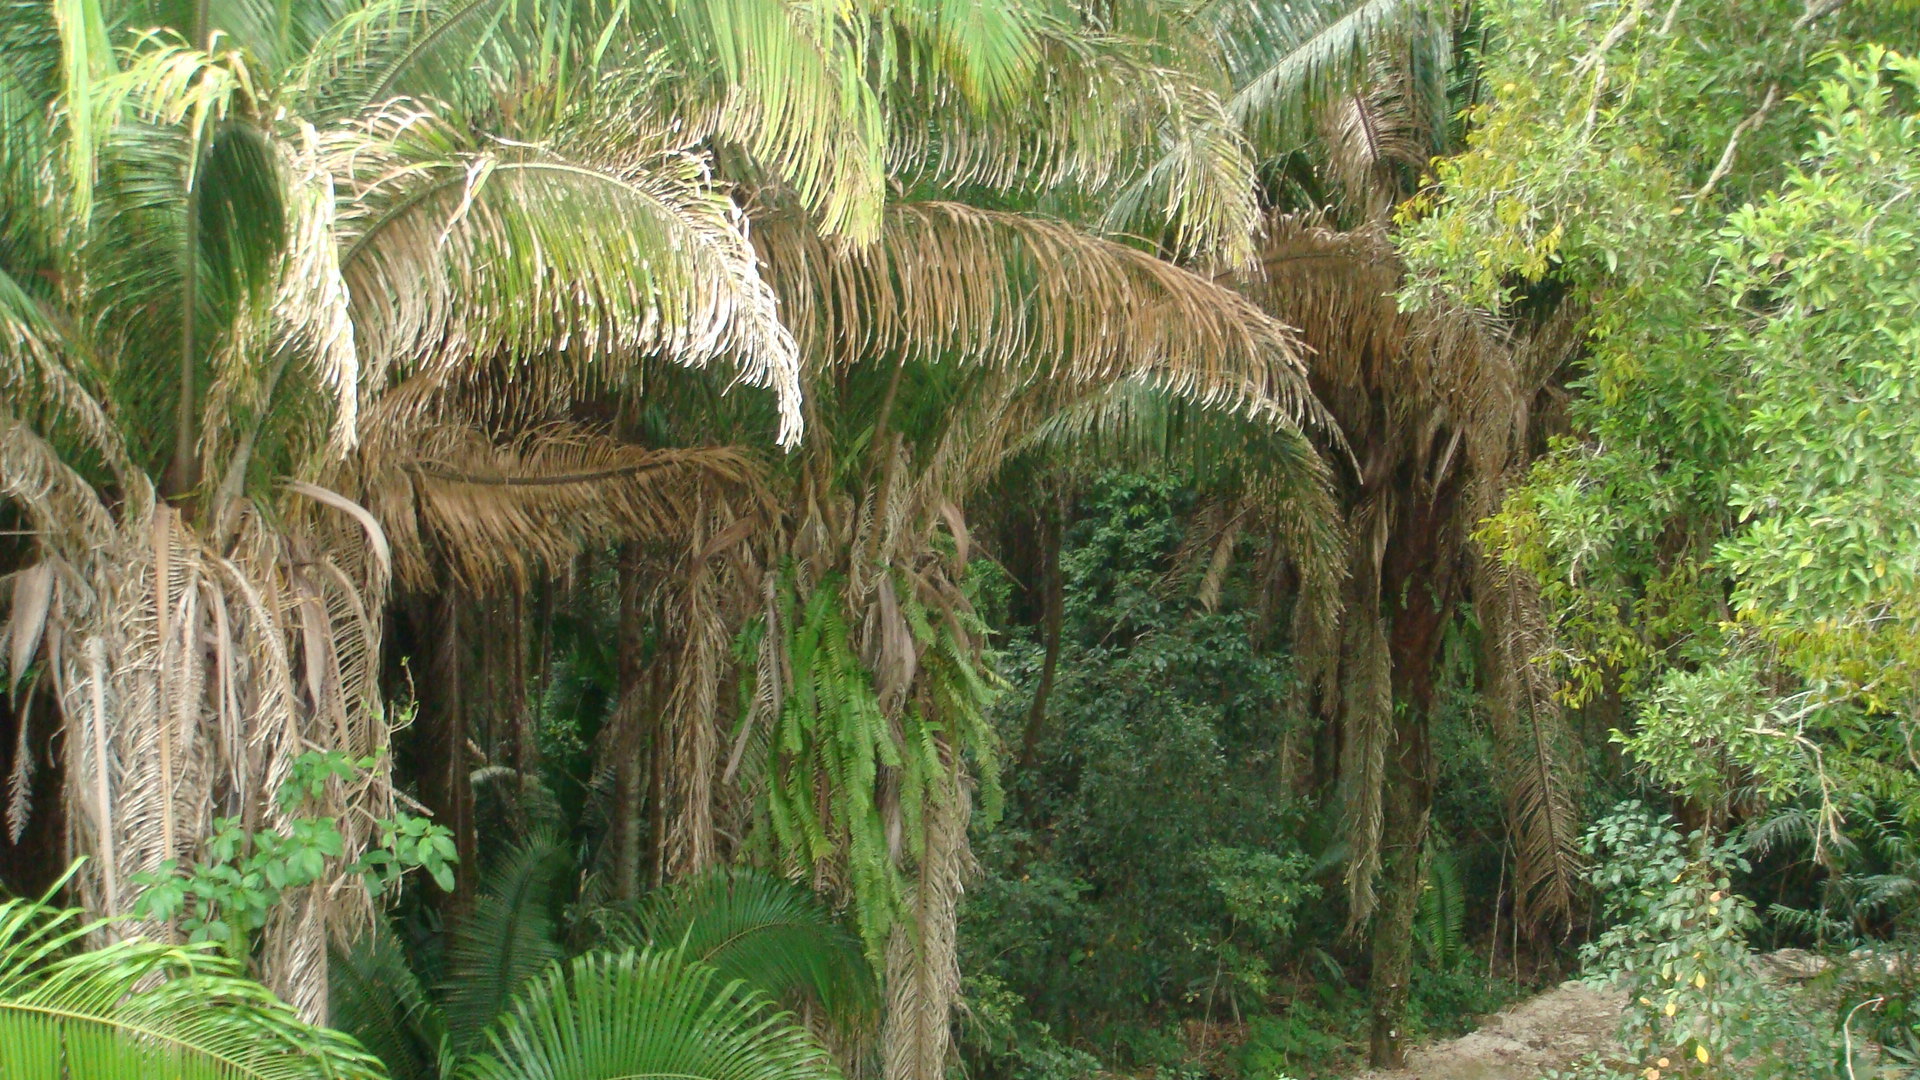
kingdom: Plantae
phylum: Tracheophyta
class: Liliopsida
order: Arecales
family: Arecaceae
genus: Attalea
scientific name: Attalea cohune
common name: Cohune palm
